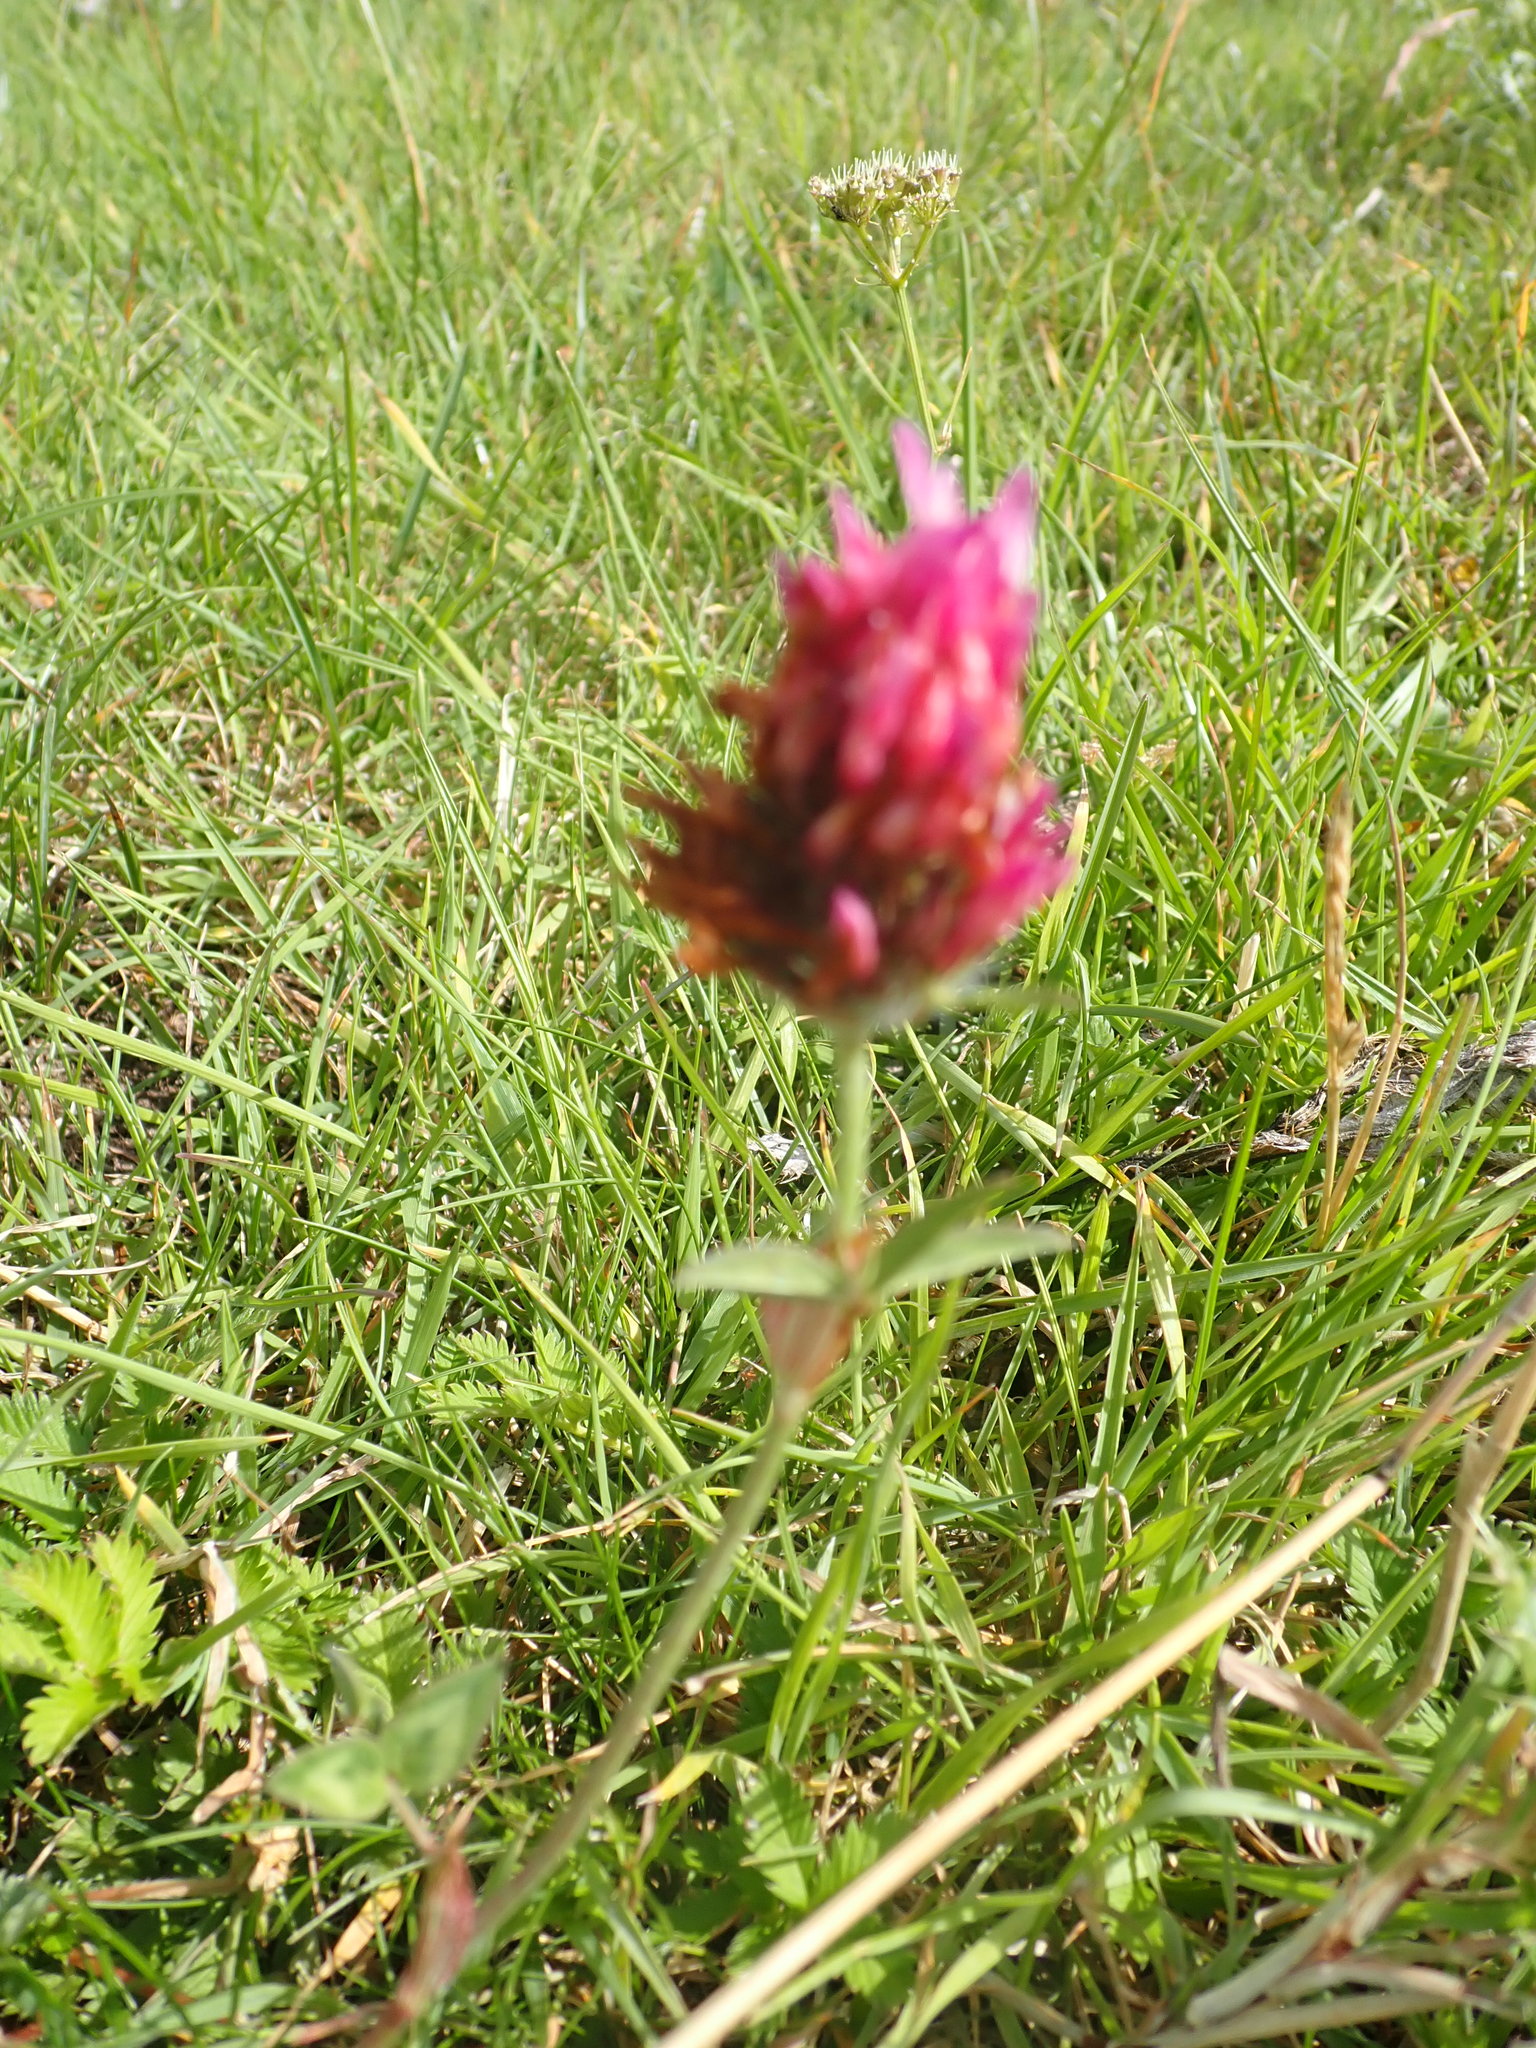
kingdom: Plantae
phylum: Tracheophyta
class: Magnoliopsida
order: Fabales
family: Fabaceae
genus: Trifolium
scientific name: Trifolium pratense
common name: Red clover
